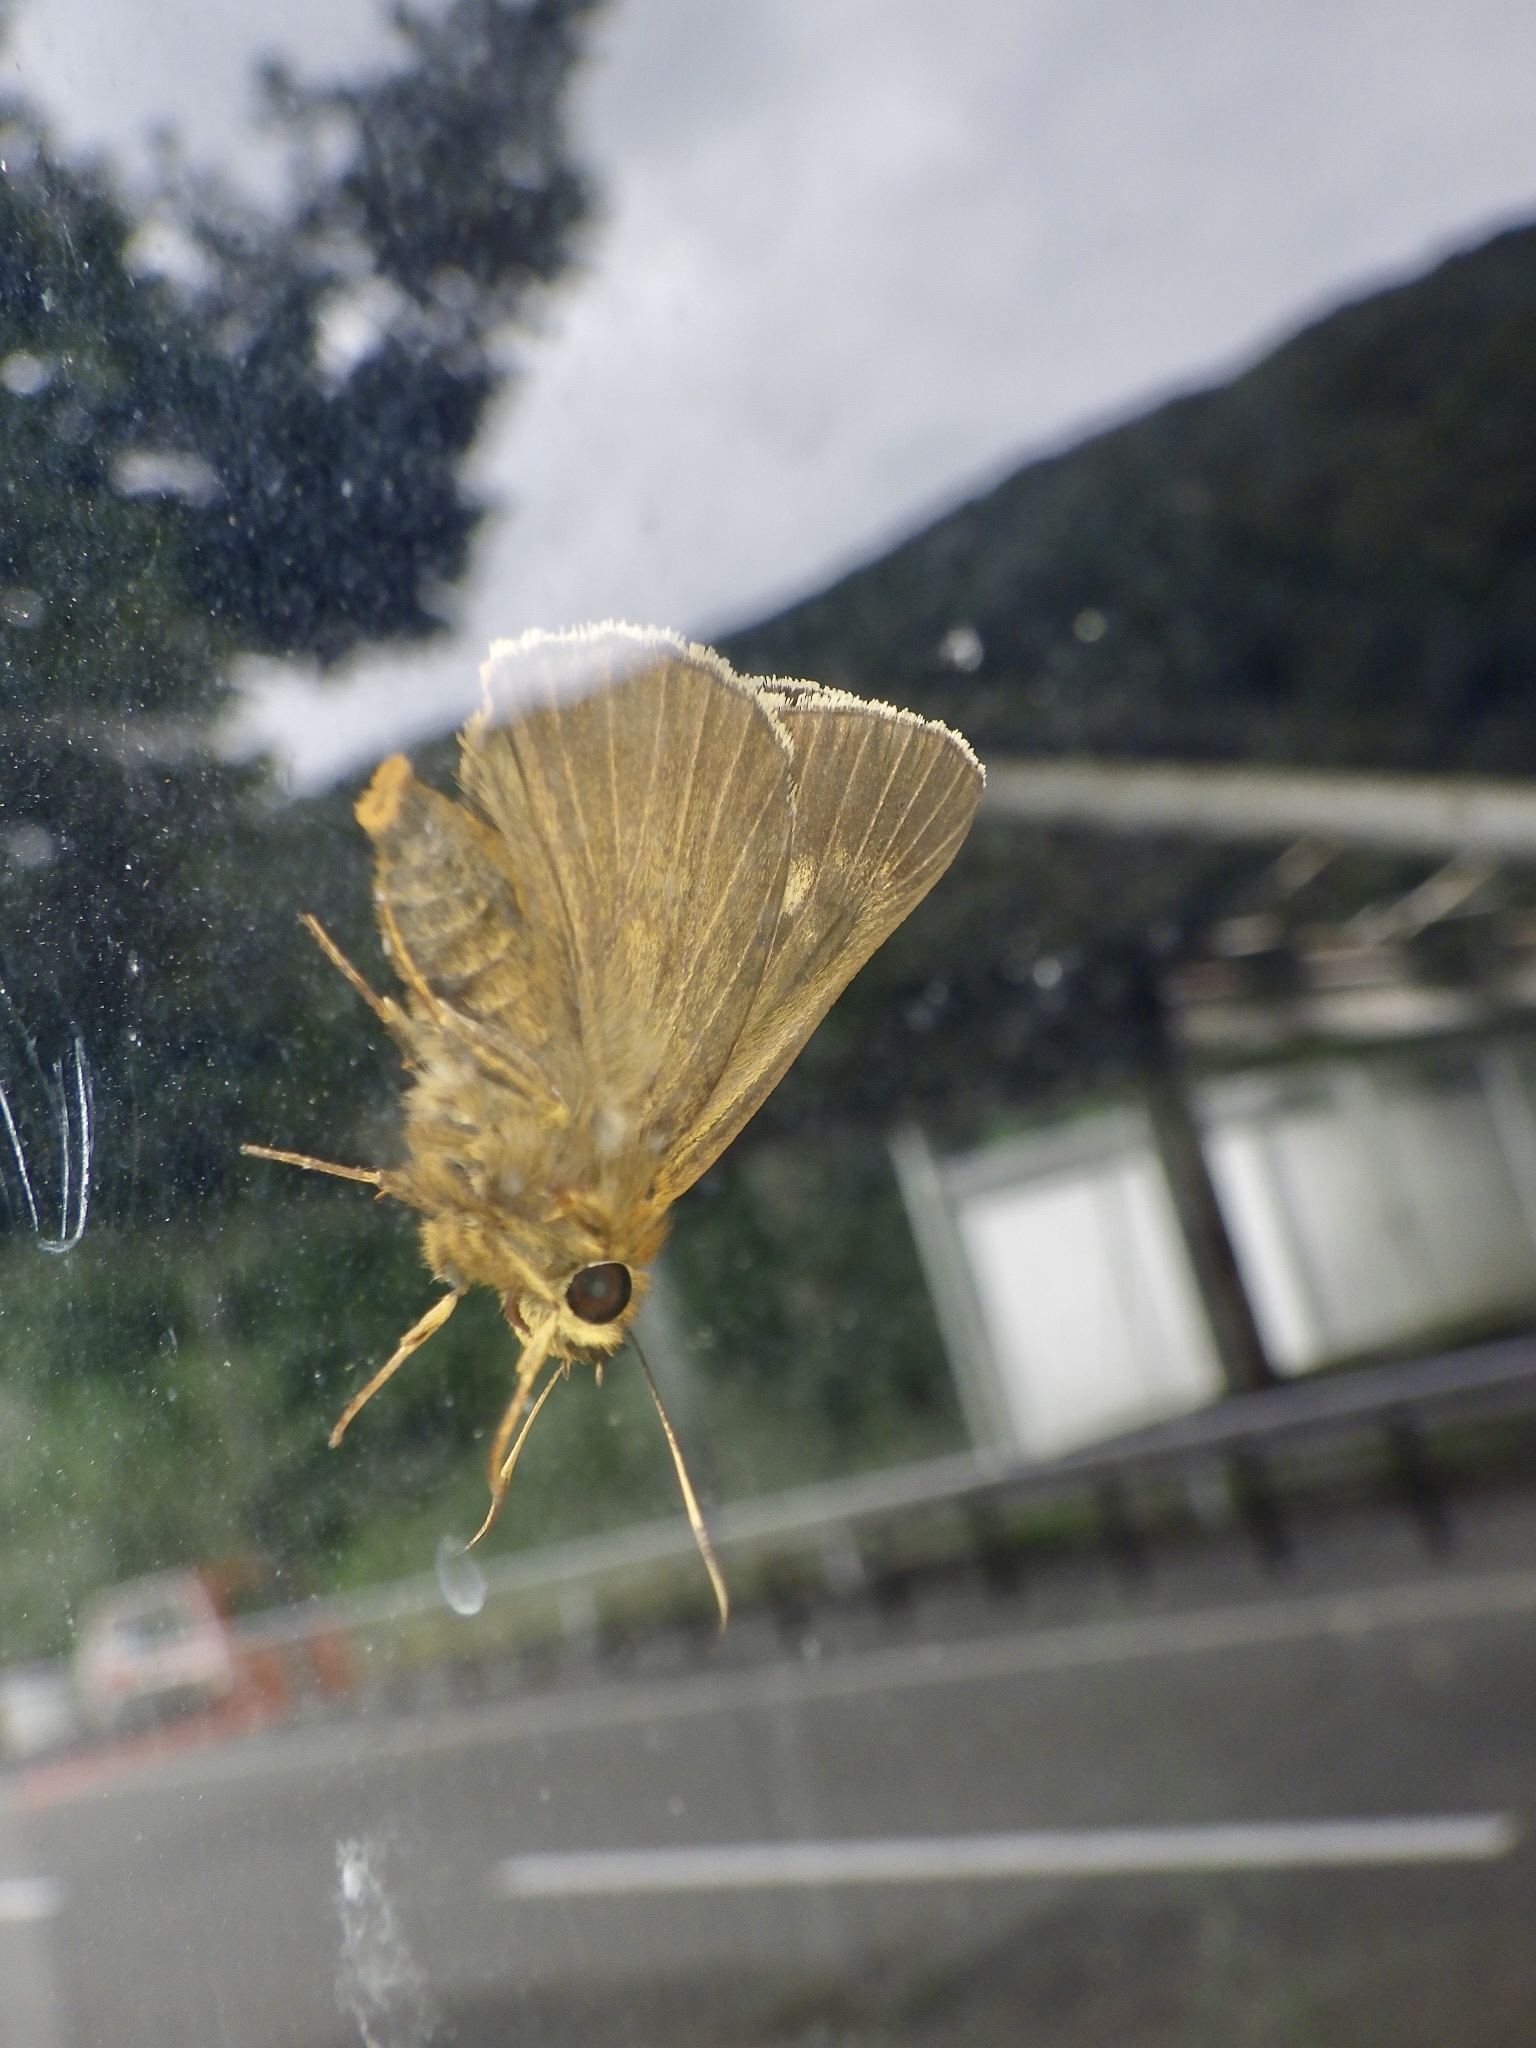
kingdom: Animalia
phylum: Arthropoda
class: Insecta
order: Lepidoptera
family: Hesperiidae
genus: Bibasis
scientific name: Bibasis aquilina
